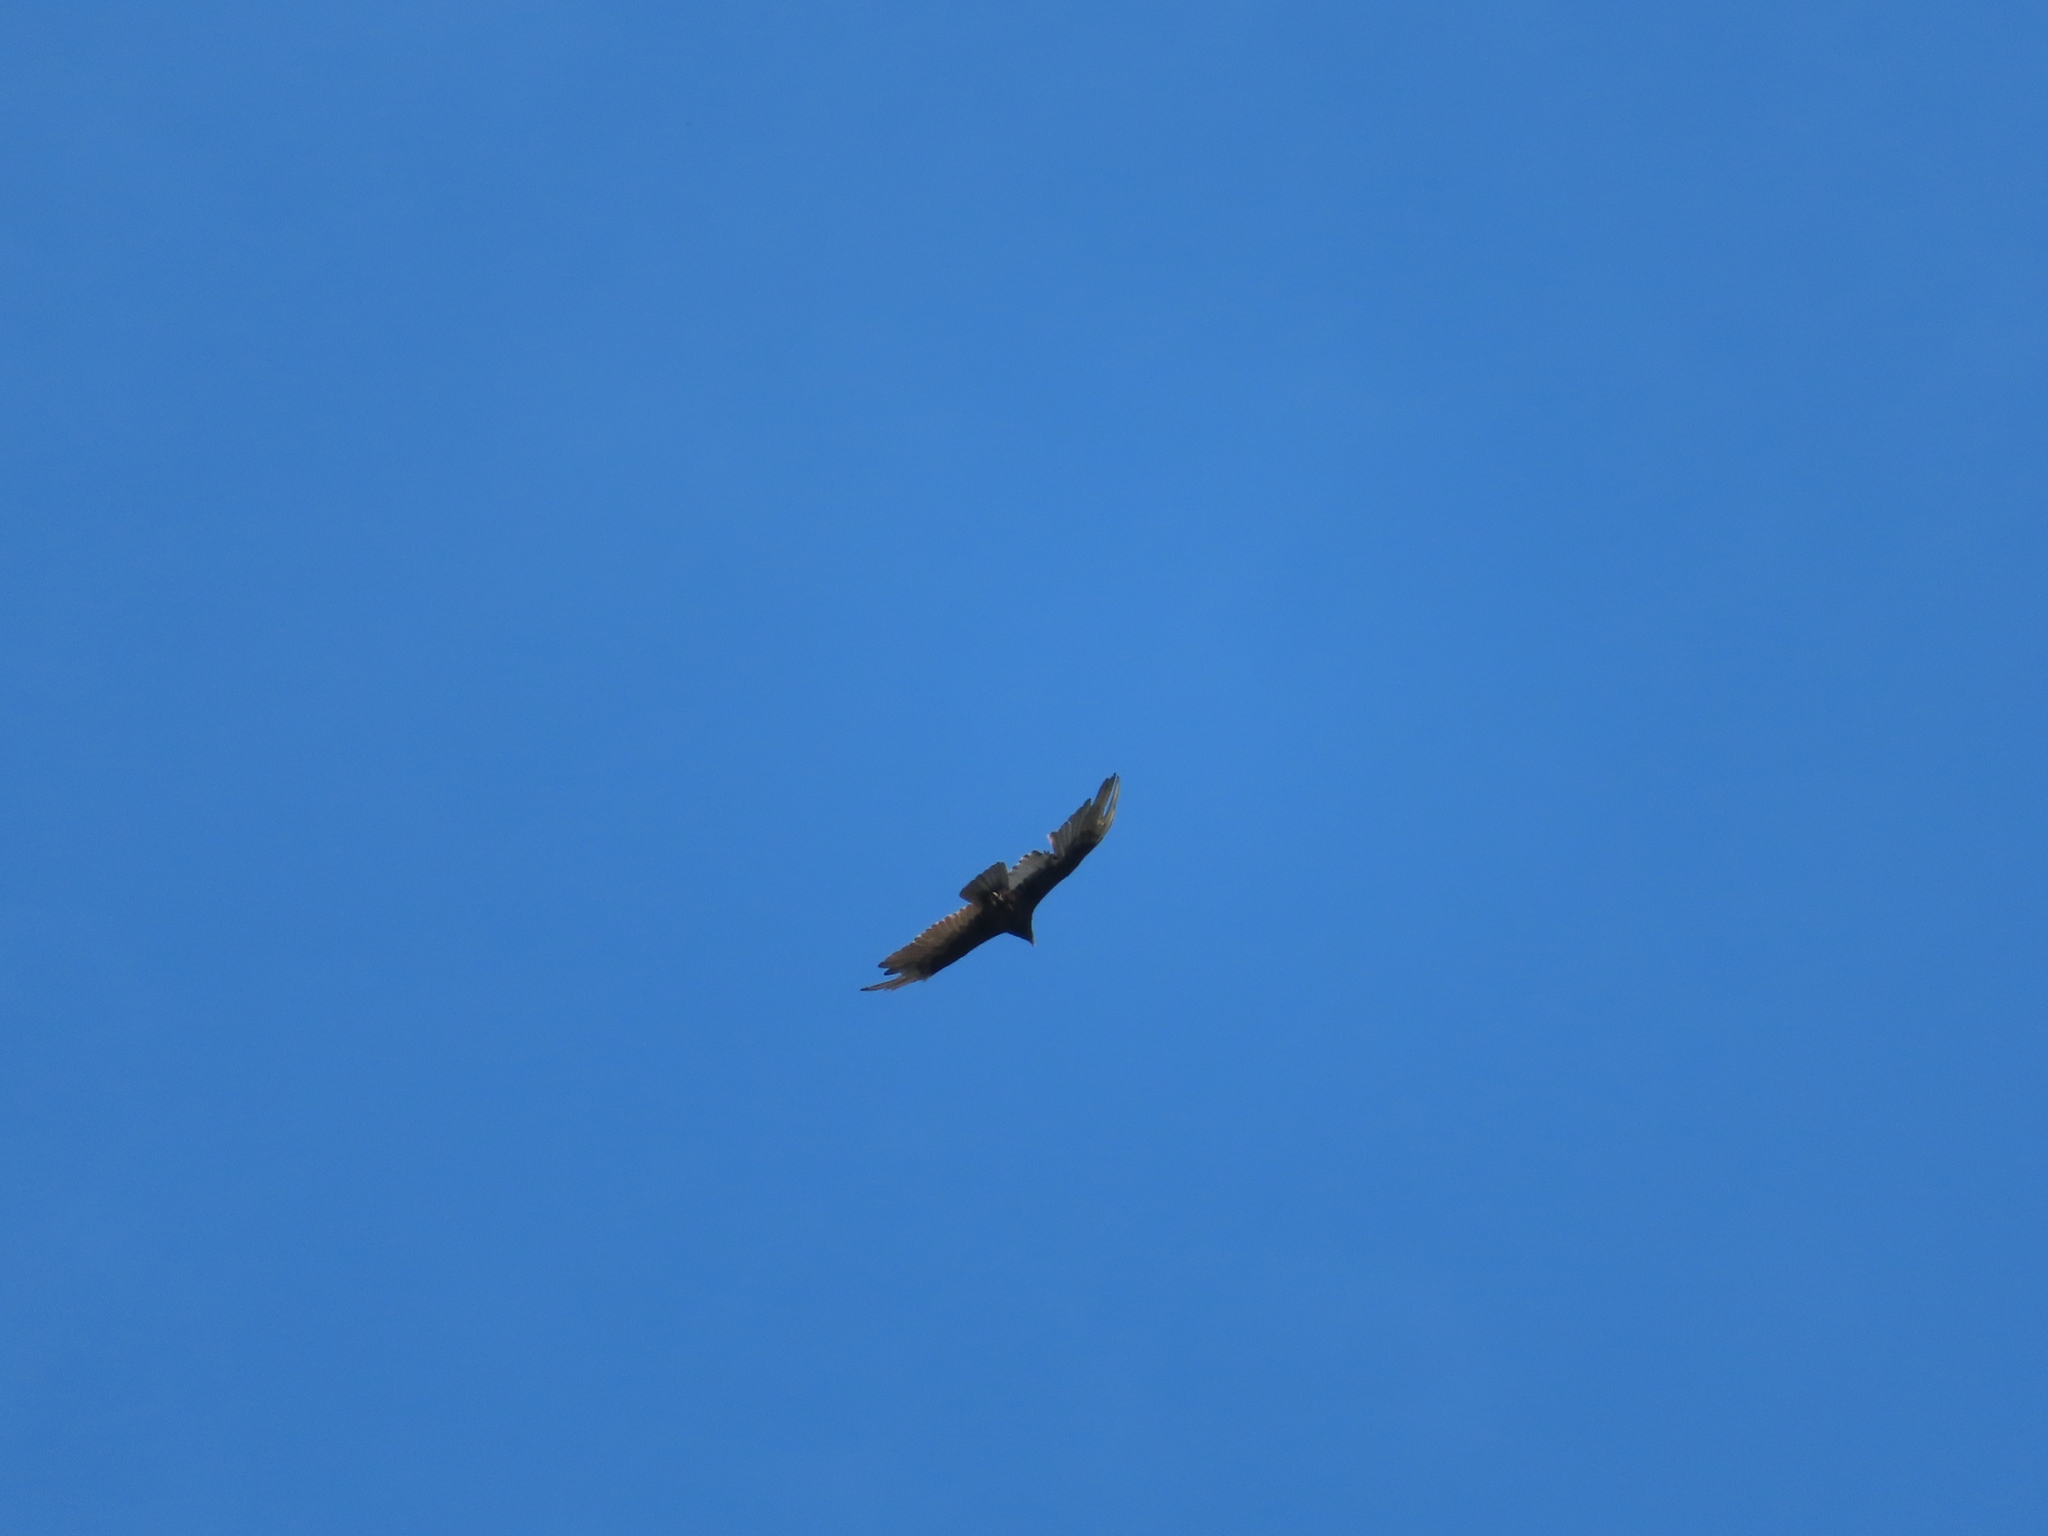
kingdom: Animalia
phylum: Chordata
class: Aves
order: Accipitriformes
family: Cathartidae
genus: Cathartes
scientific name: Cathartes aura
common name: Turkey vulture
